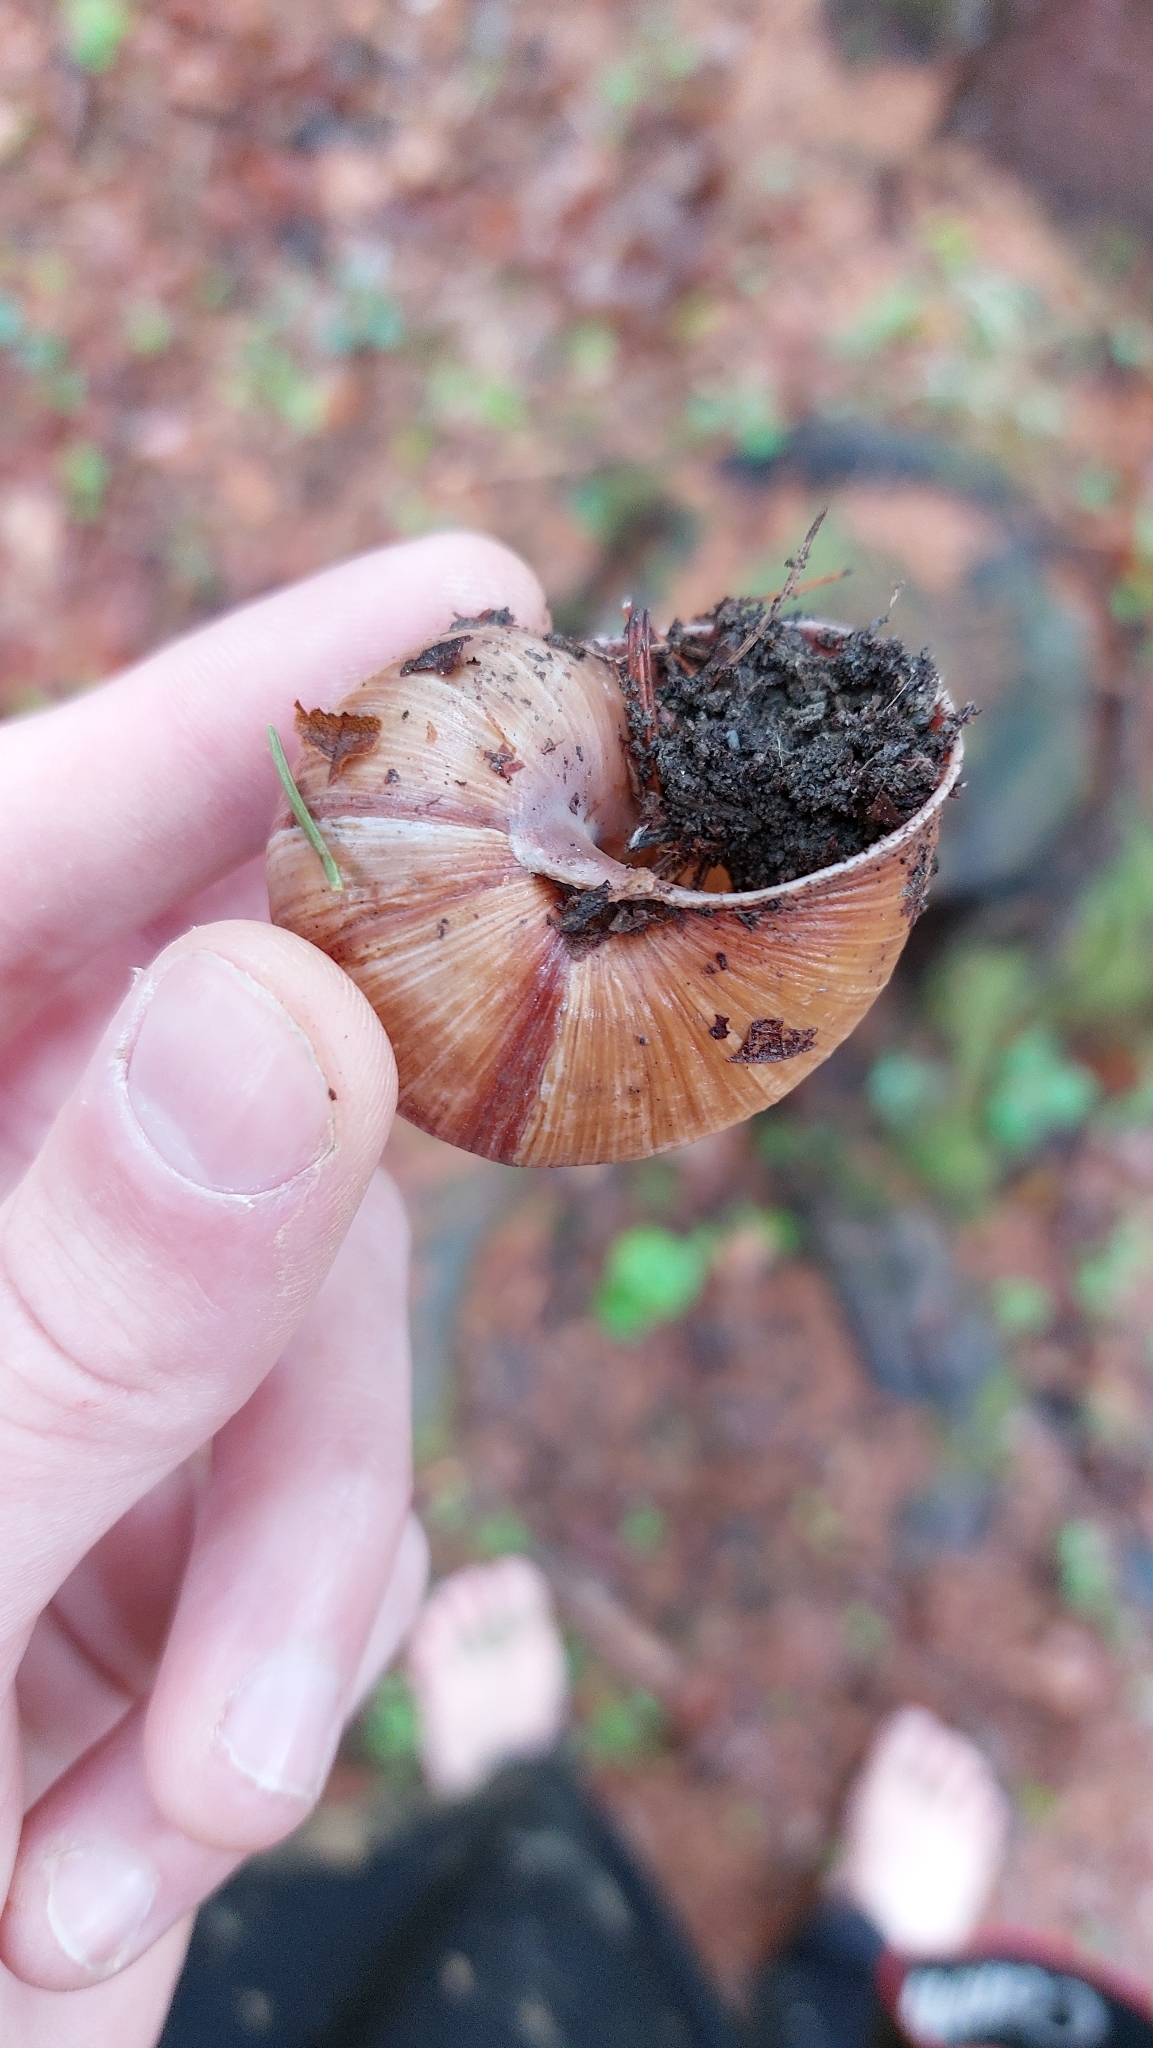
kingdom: Animalia
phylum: Mollusca
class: Gastropoda
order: Stylommatophora
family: Helicidae
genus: Helix
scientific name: Helix pomatia
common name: Roman snail
